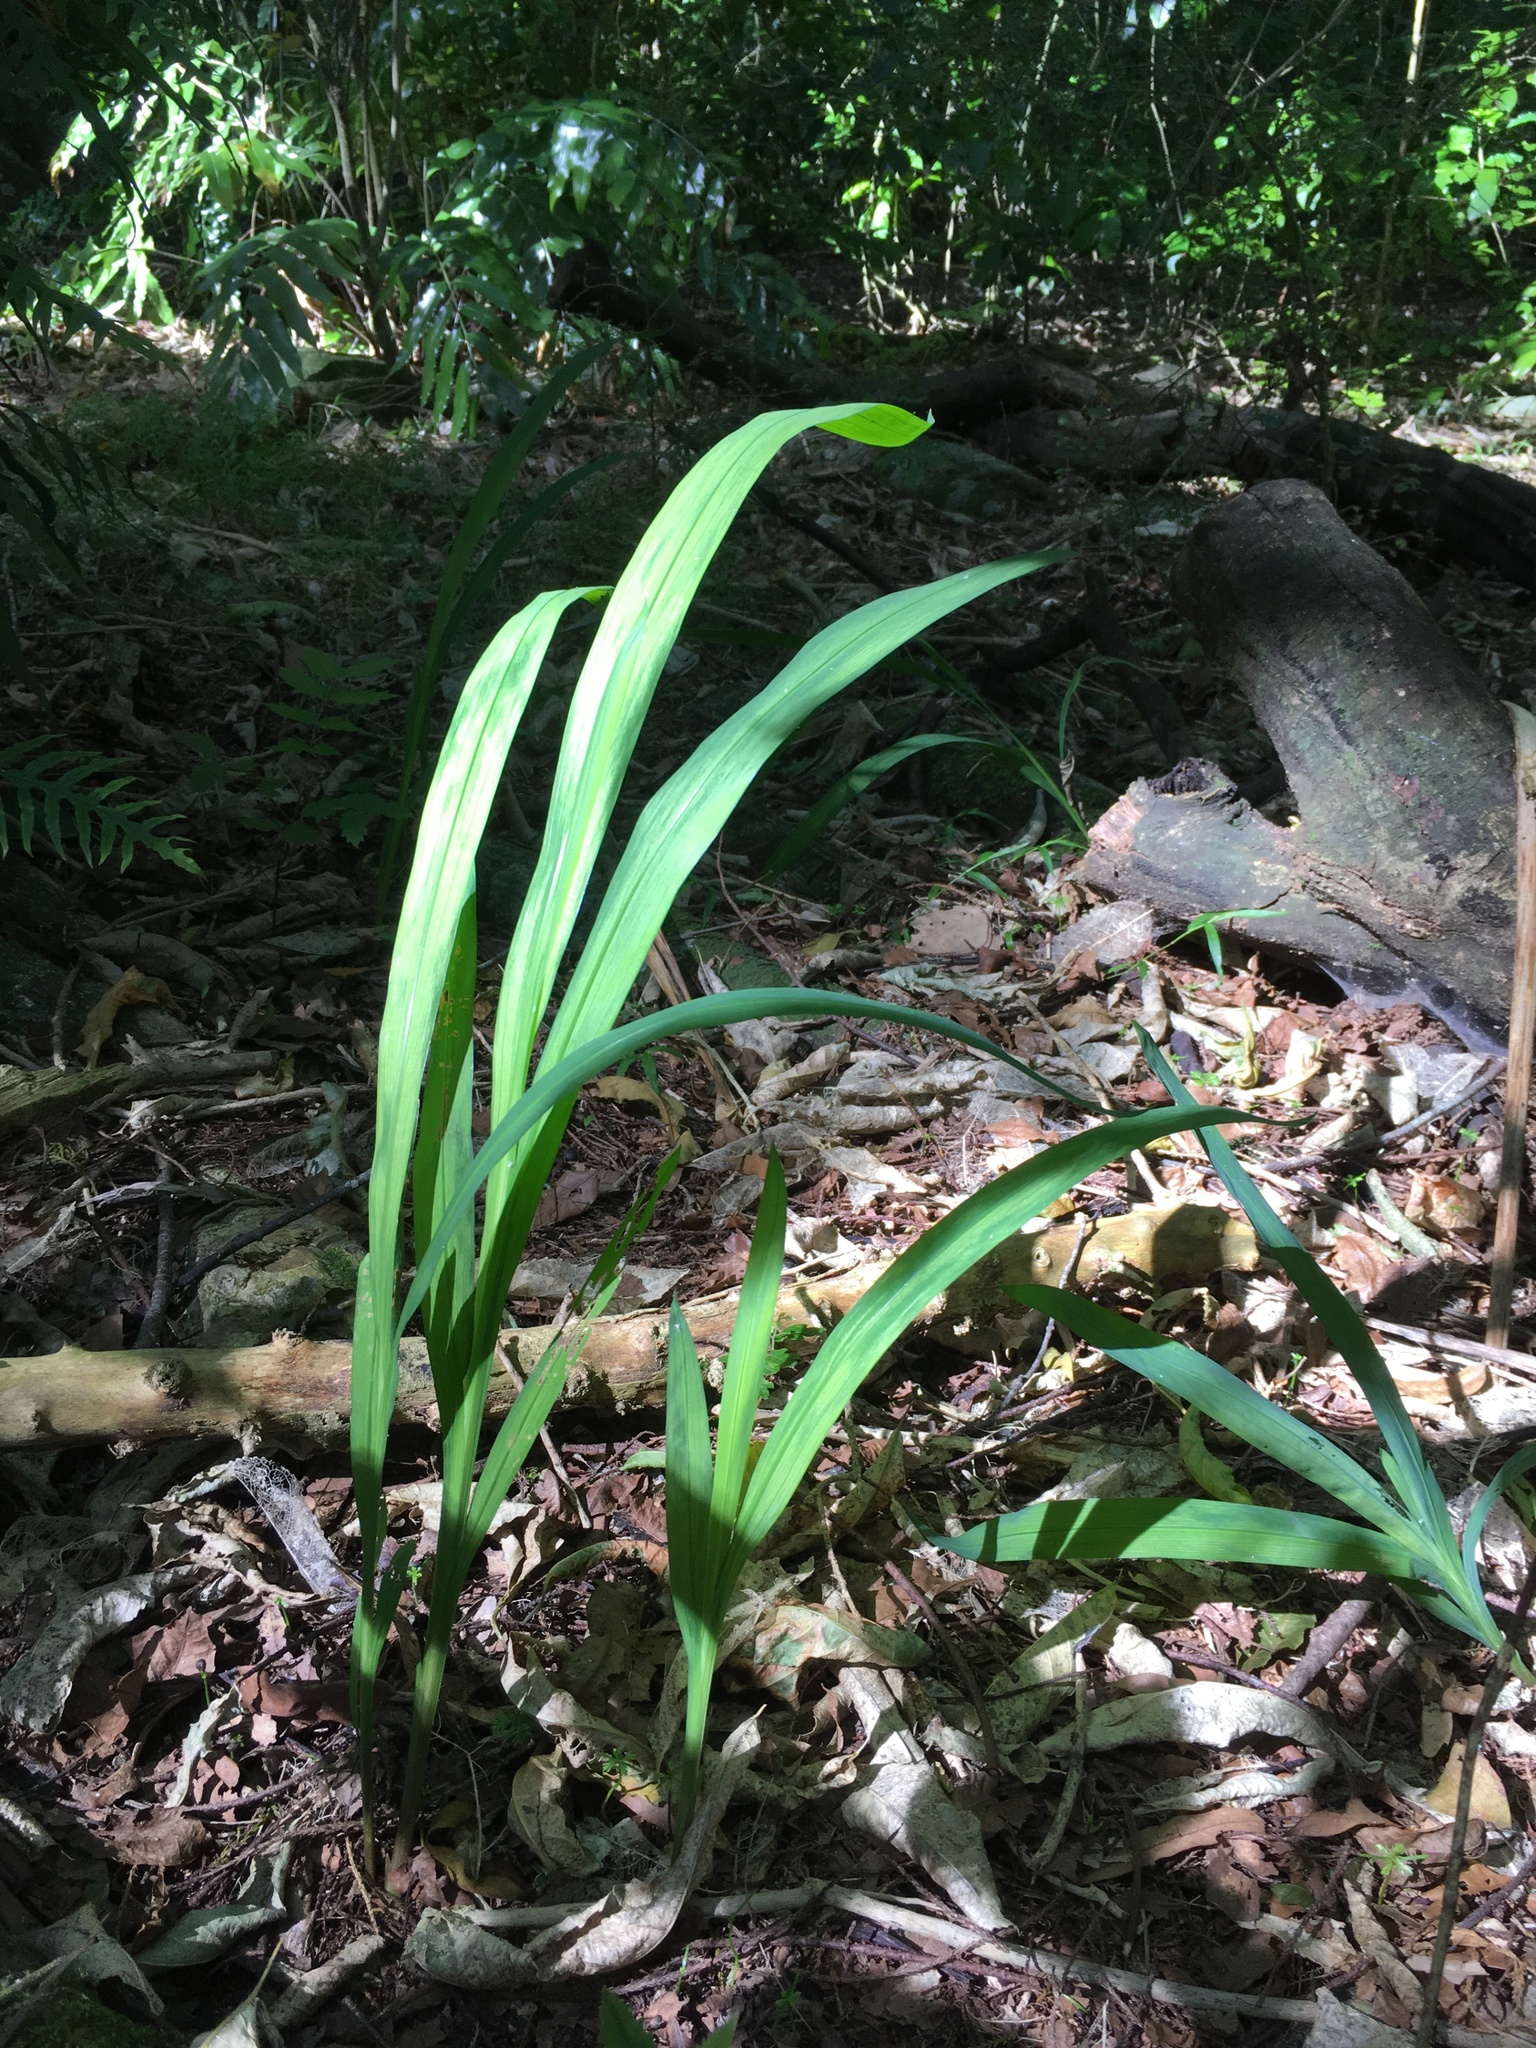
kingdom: Plantae
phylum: Tracheophyta
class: Liliopsida
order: Asparagales
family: Iridaceae
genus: Crocosmia
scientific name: Crocosmia crocosmiiflora
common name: Montbretia
